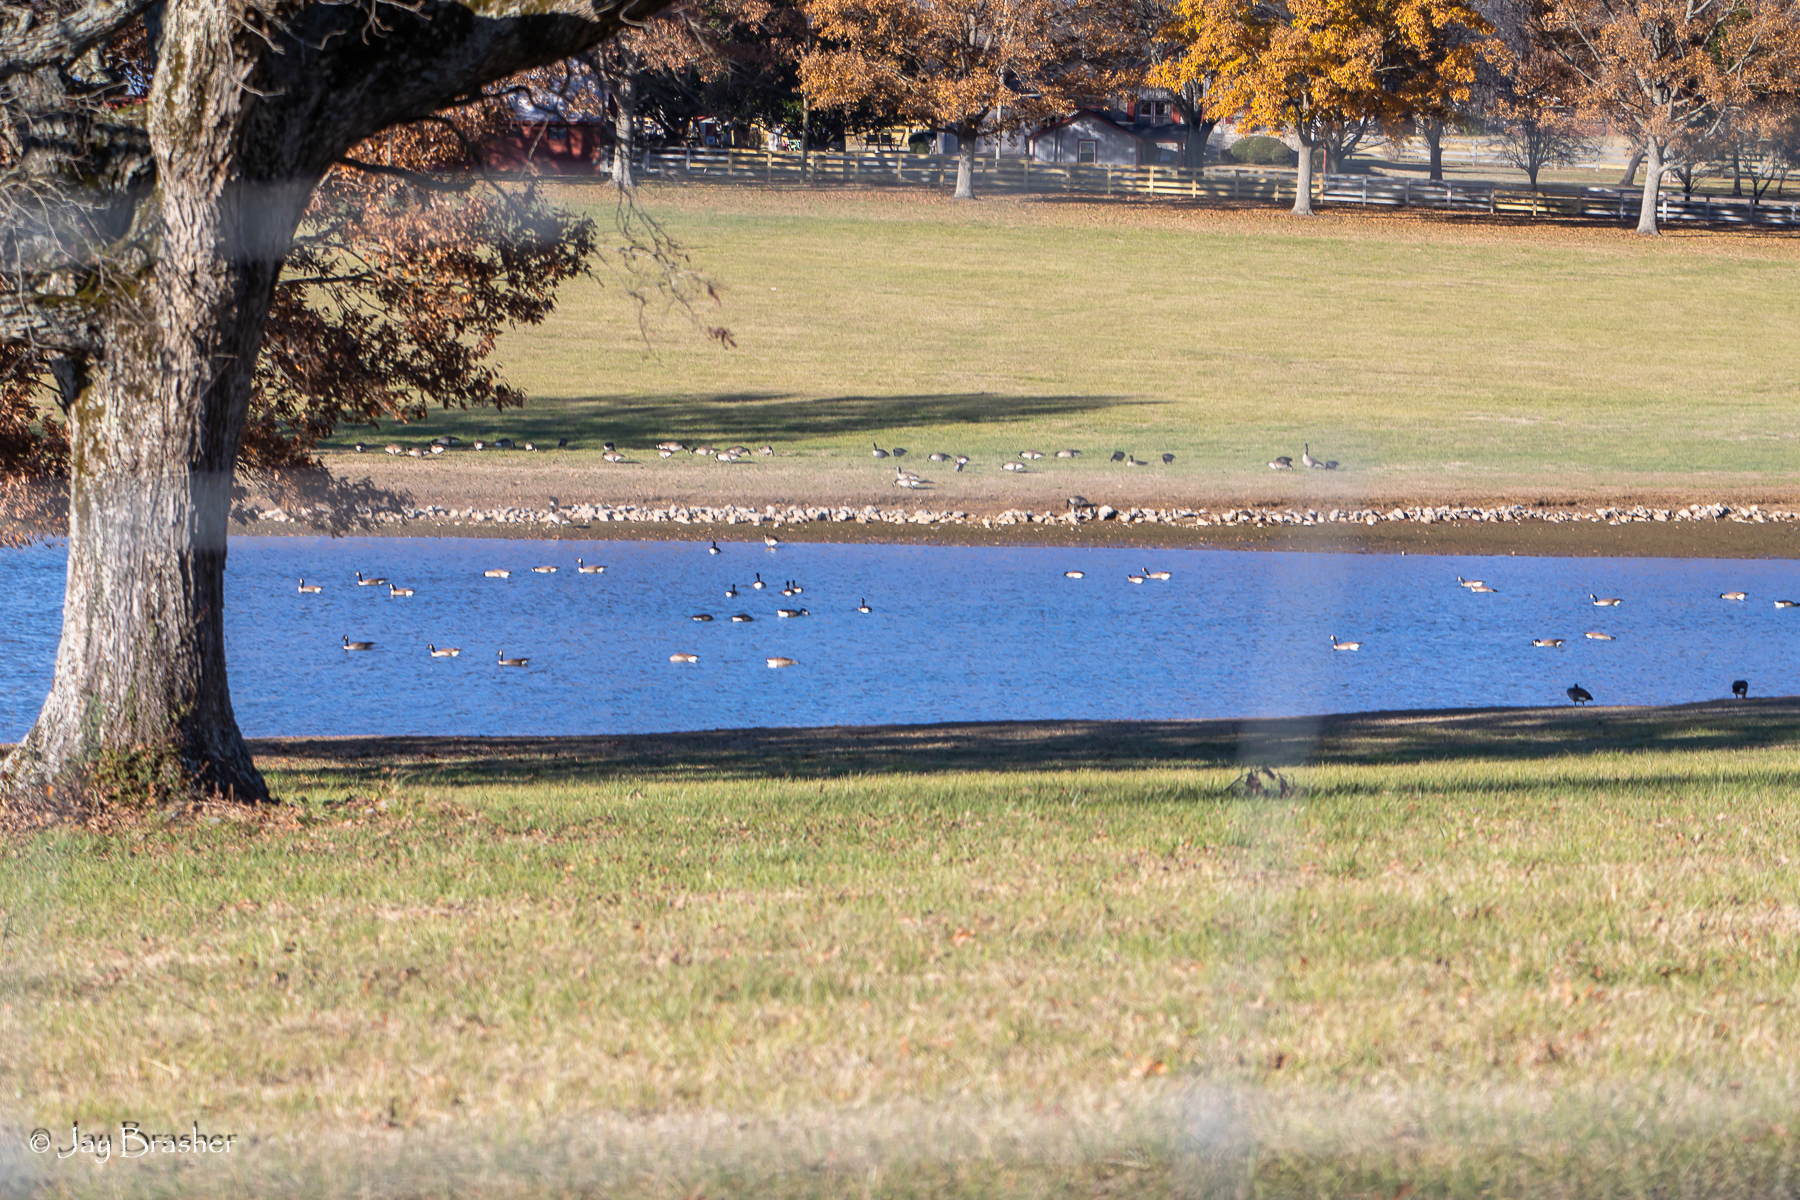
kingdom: Animalia
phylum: Chordata
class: Aves
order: Anseriformes
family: Anatidae
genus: Branta
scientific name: Branta canadensis
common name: Canada goose
